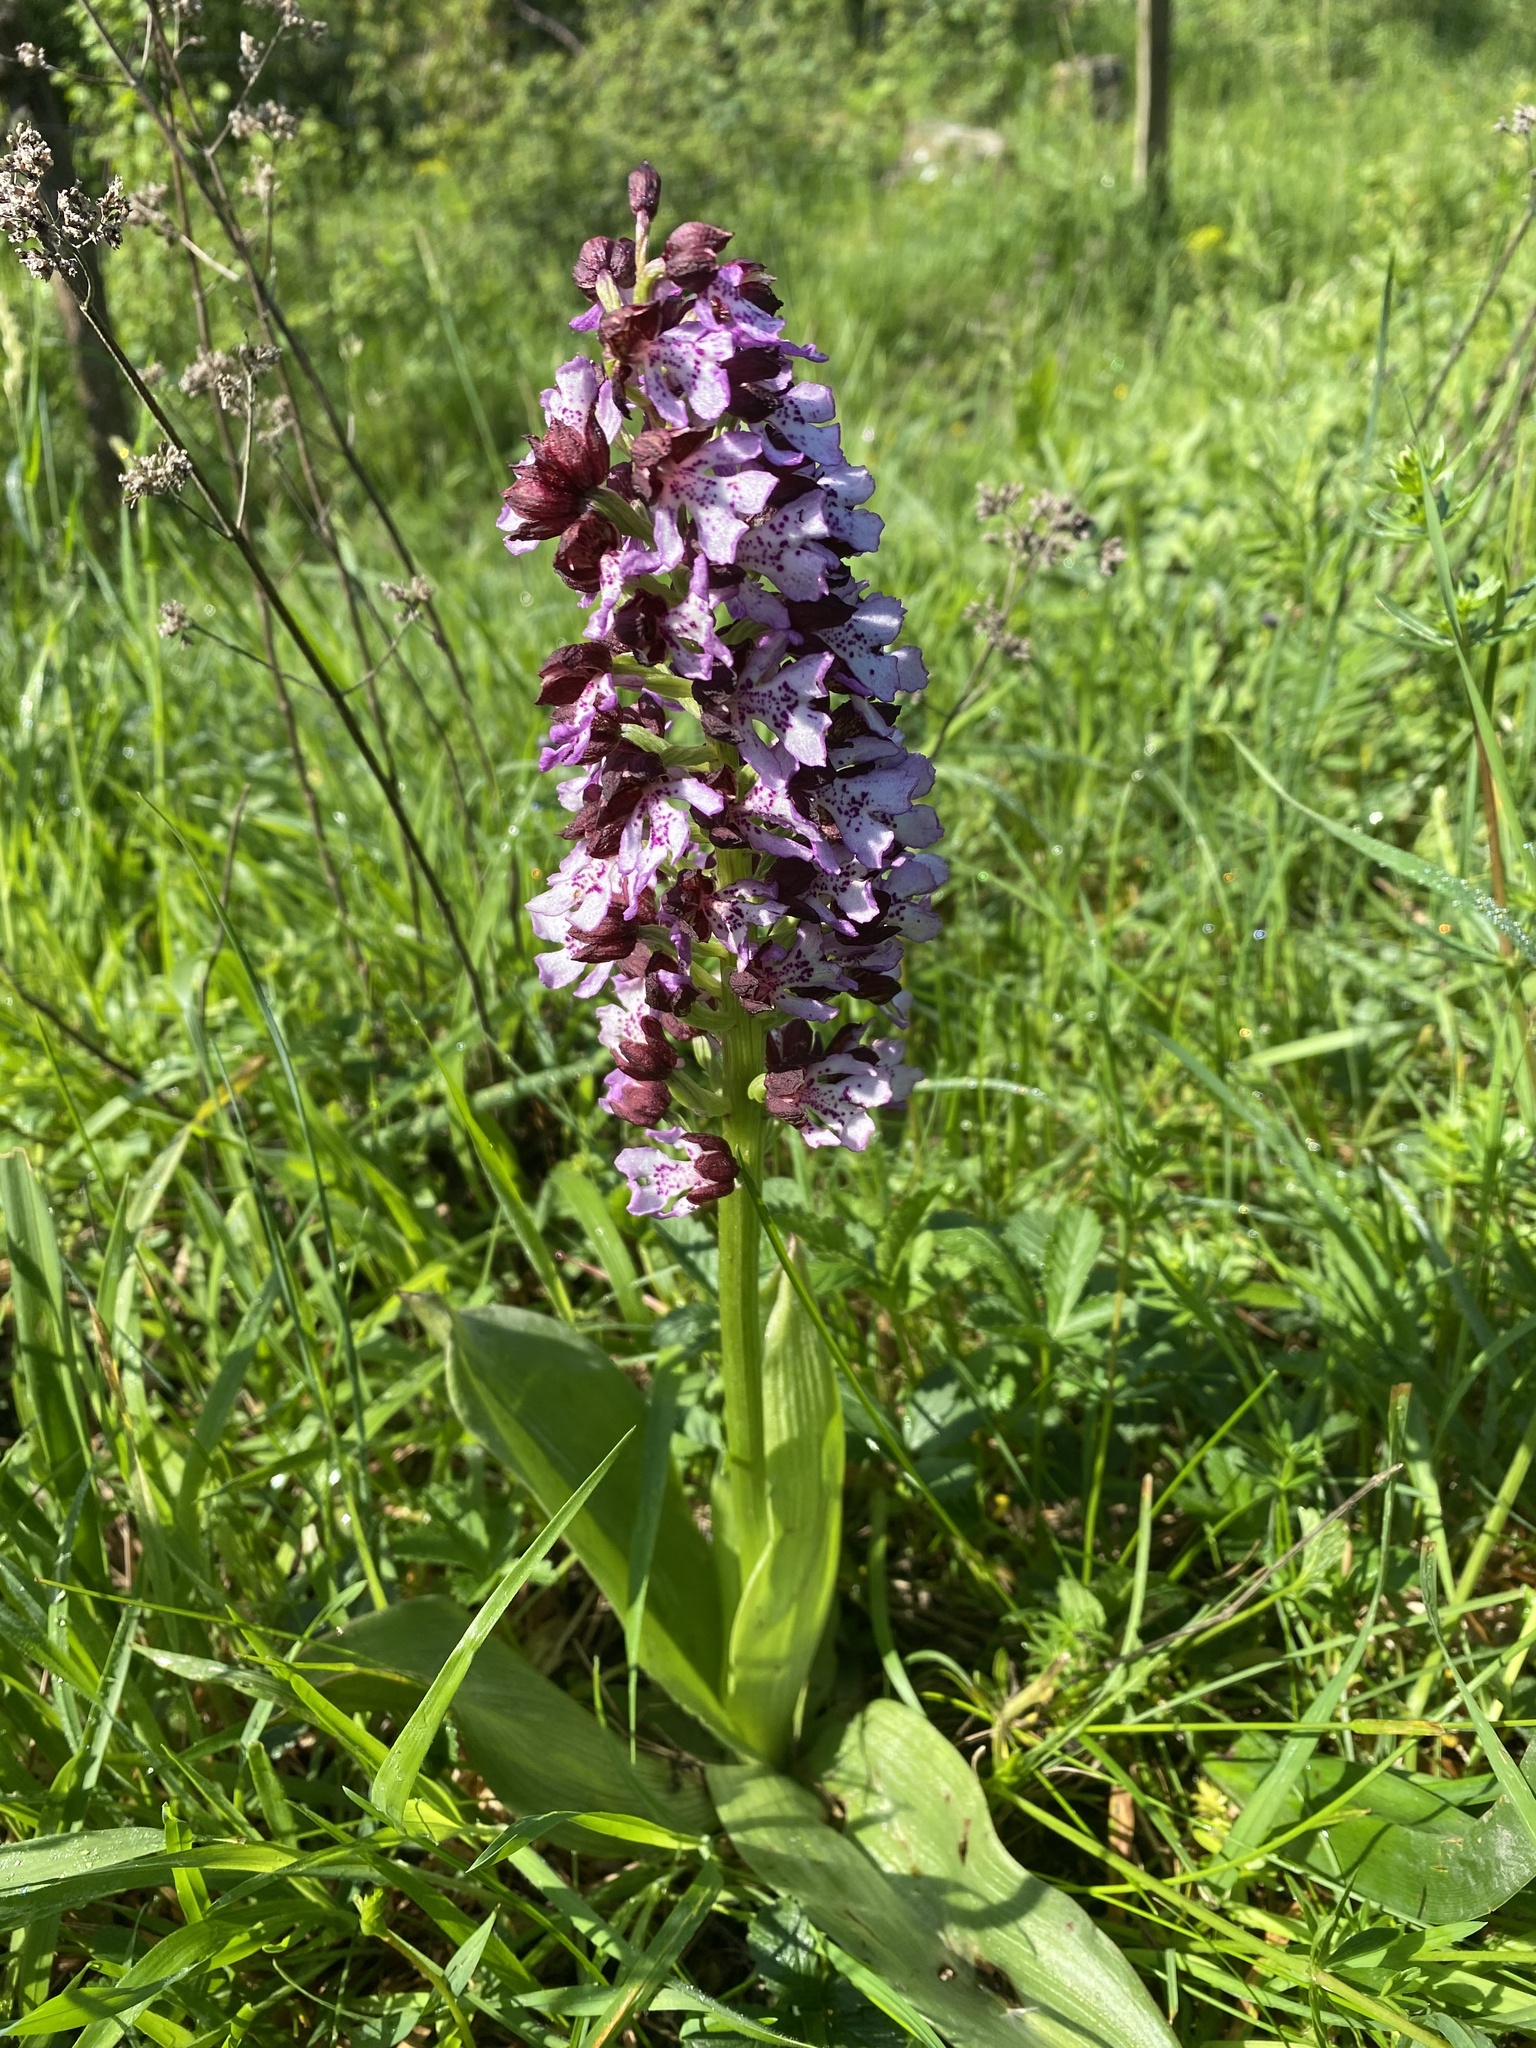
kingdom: Plantae
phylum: Tracheophyta
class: Liliopsida
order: Asparagales
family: Orchidaceae
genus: Orchis
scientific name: Orchis purpurea
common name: Lady orchid
